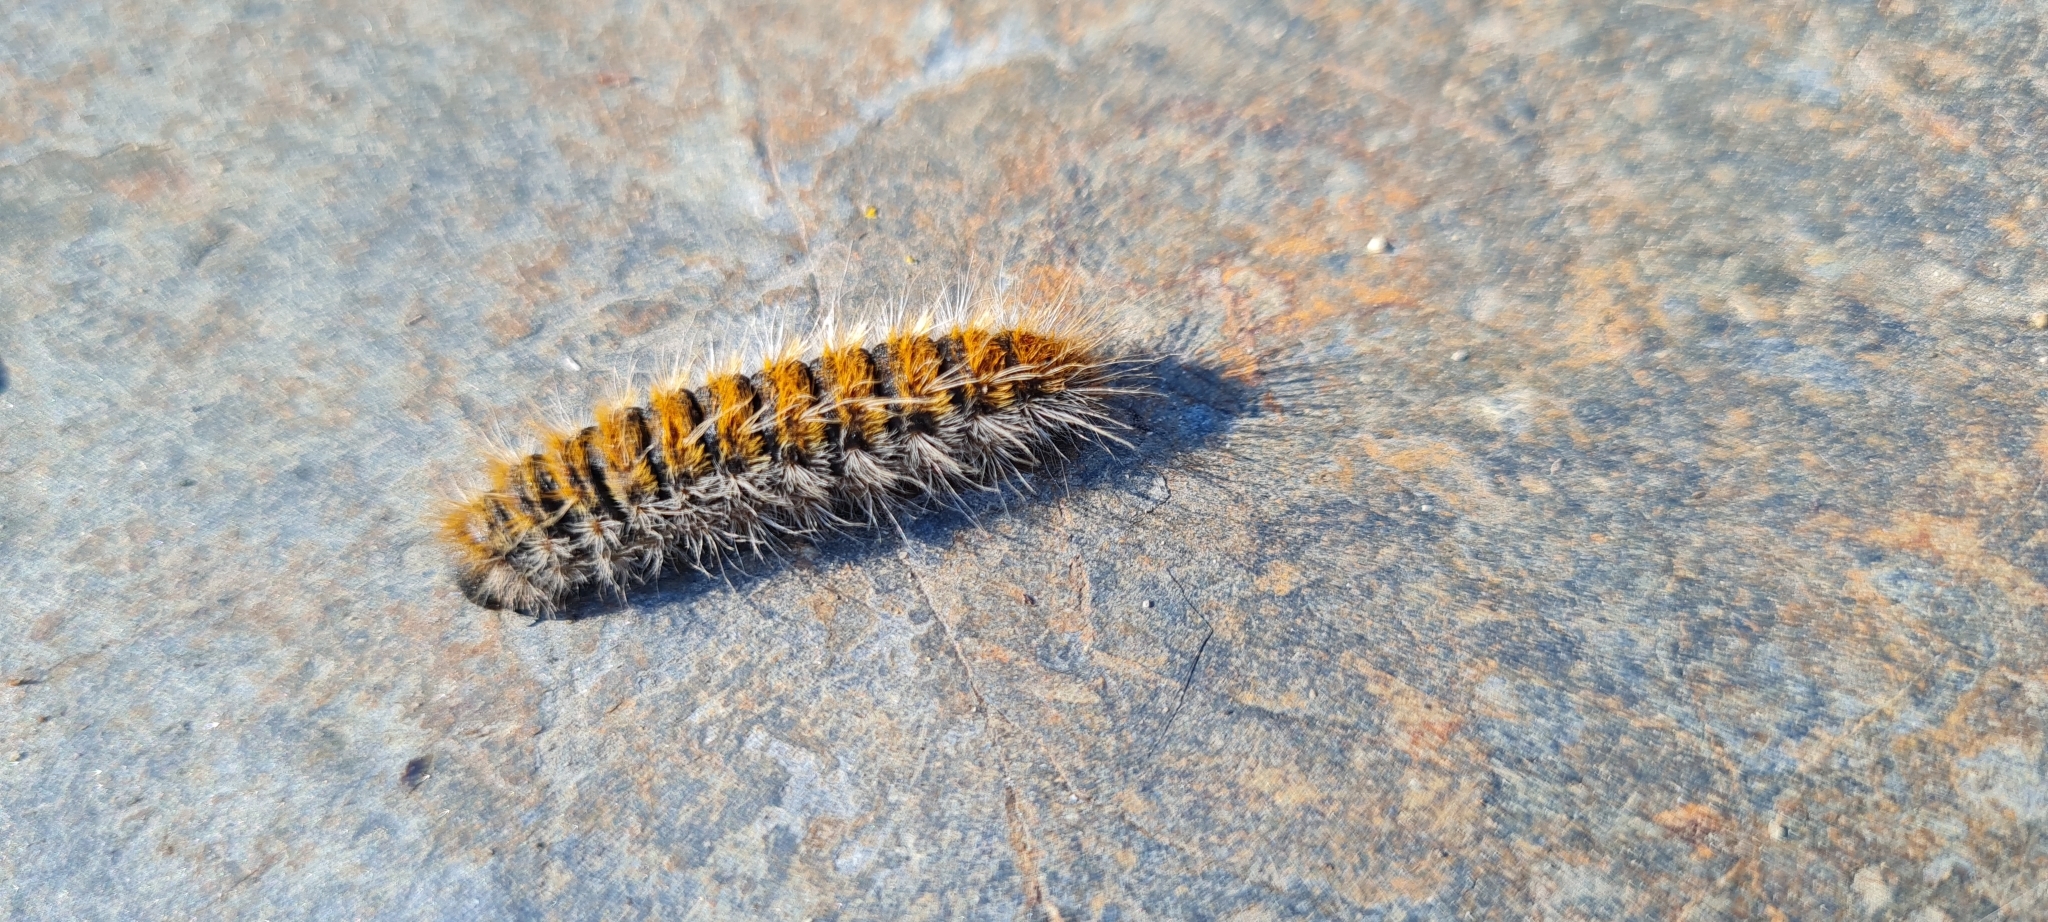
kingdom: Animalia
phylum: Arthropoda
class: Insecta
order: Lepidoptera
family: Notodontidae
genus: Thaumetopoea
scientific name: Thaumetopoea pityocampa
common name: Pine processionary
